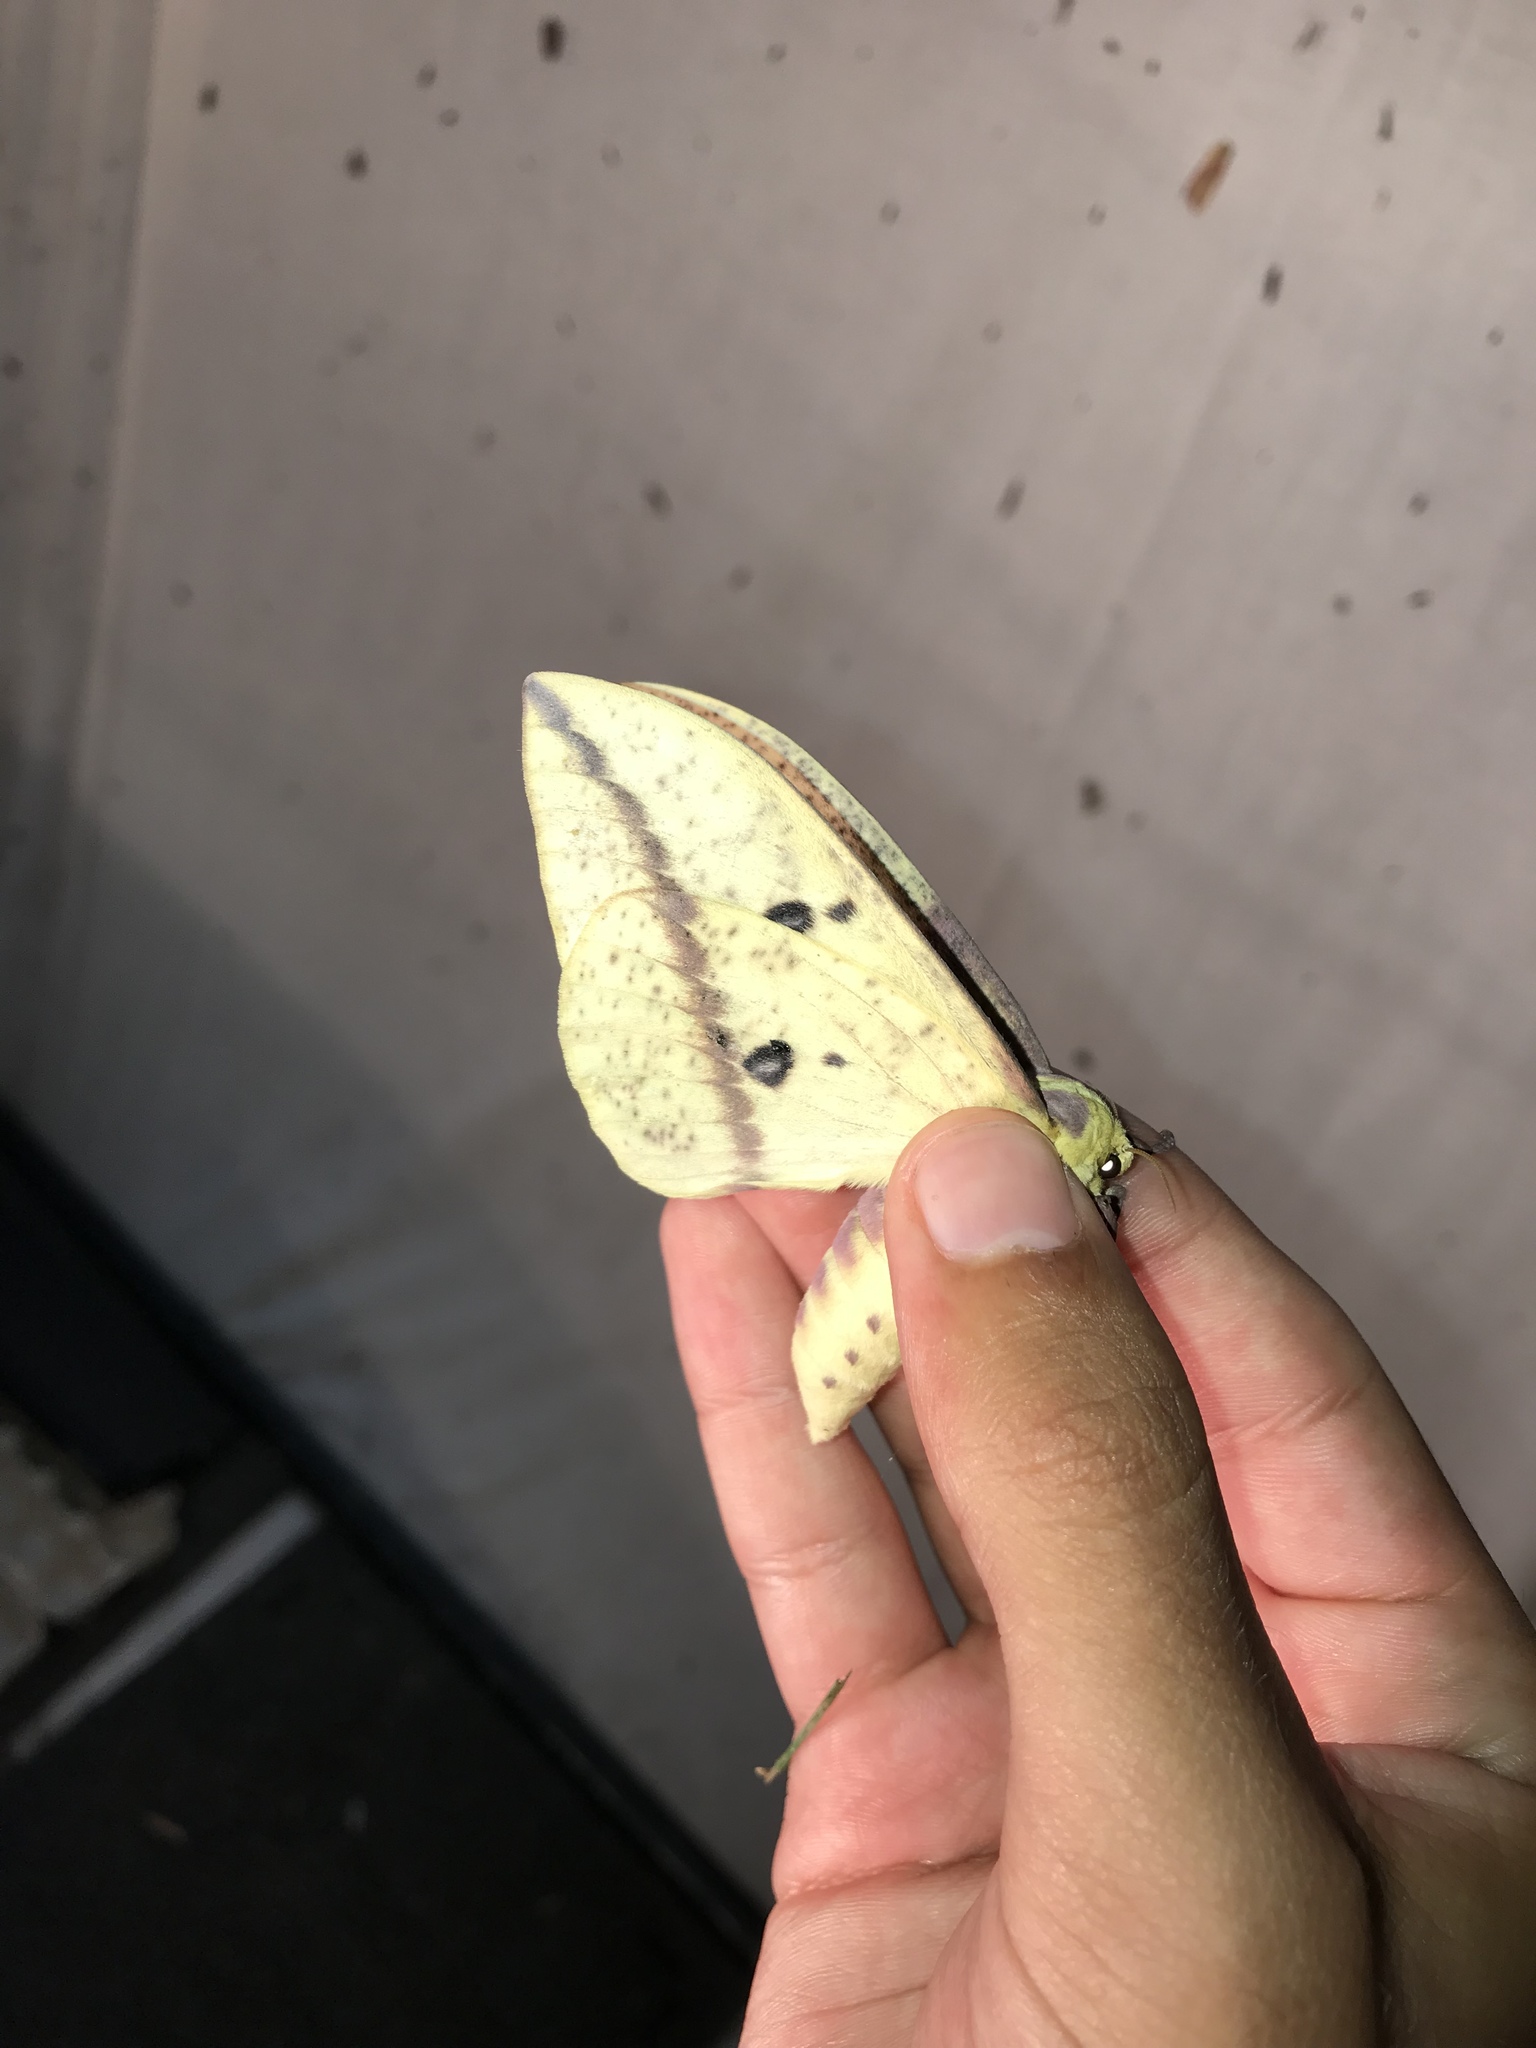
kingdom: Animalia
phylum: Arthropoda
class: Insecta
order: Lepidoptera
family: Saturniidae
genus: Eacles
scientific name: Eacles
